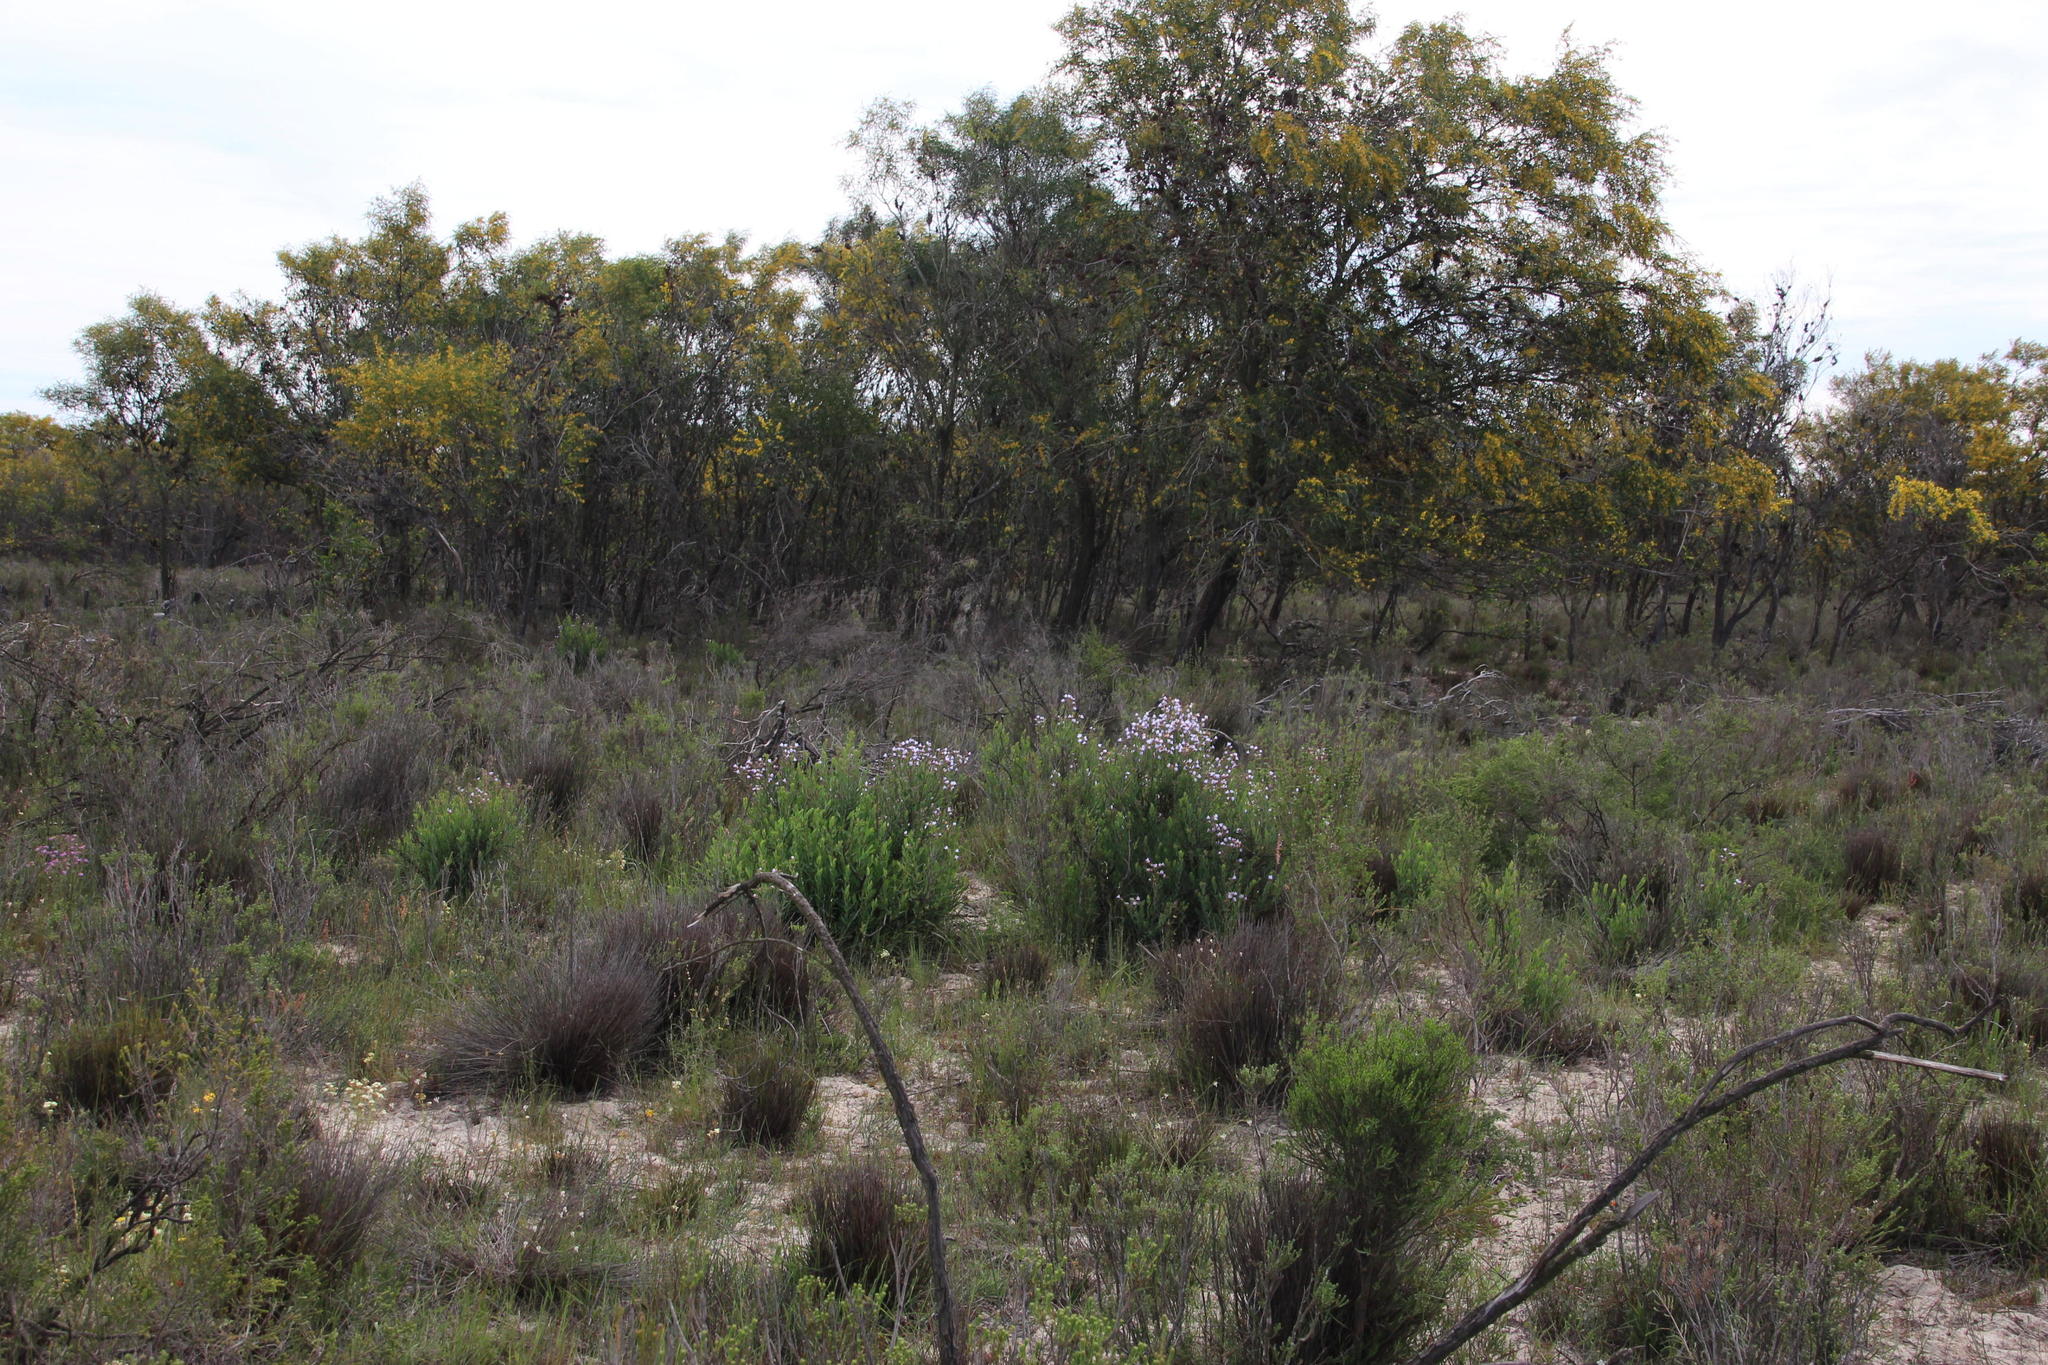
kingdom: Plantae
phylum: Tracheophyta
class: Magnoliopsida
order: Boraginales
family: Boraginaceae
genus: Lobostemon
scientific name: Lobostemon glaucophyllus
